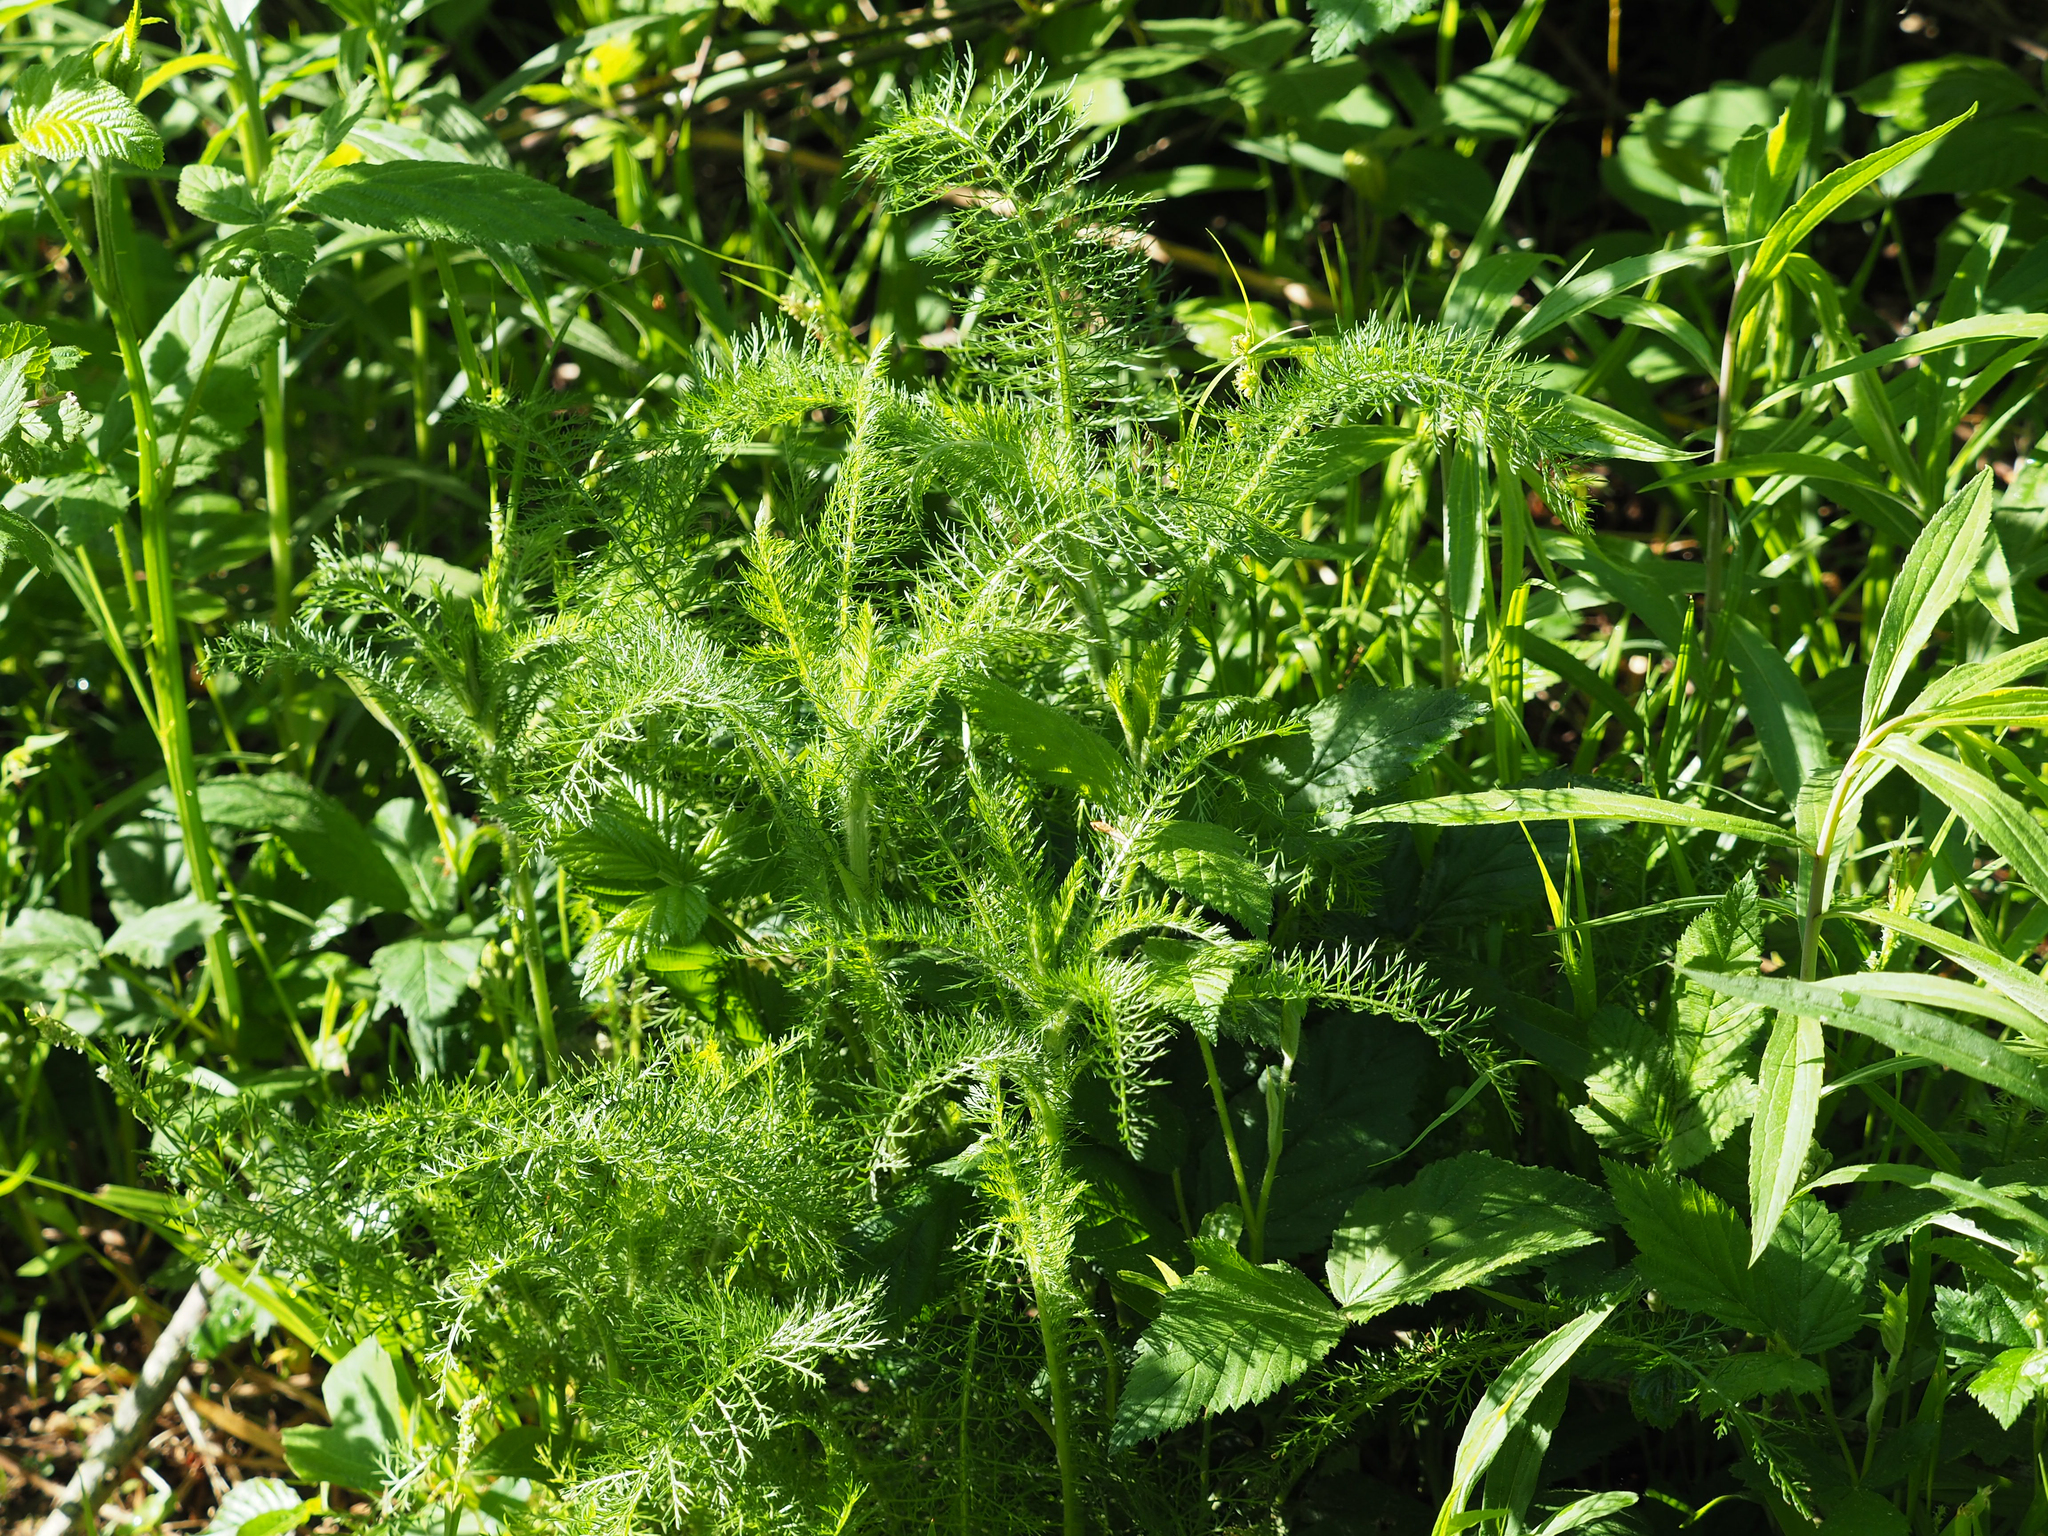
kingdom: Plantae
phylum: Tracheophyta
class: Magnoliopsida
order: Asterales
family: Asteraceae
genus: Achillea
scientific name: Achillea millefolium
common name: Yarrow
